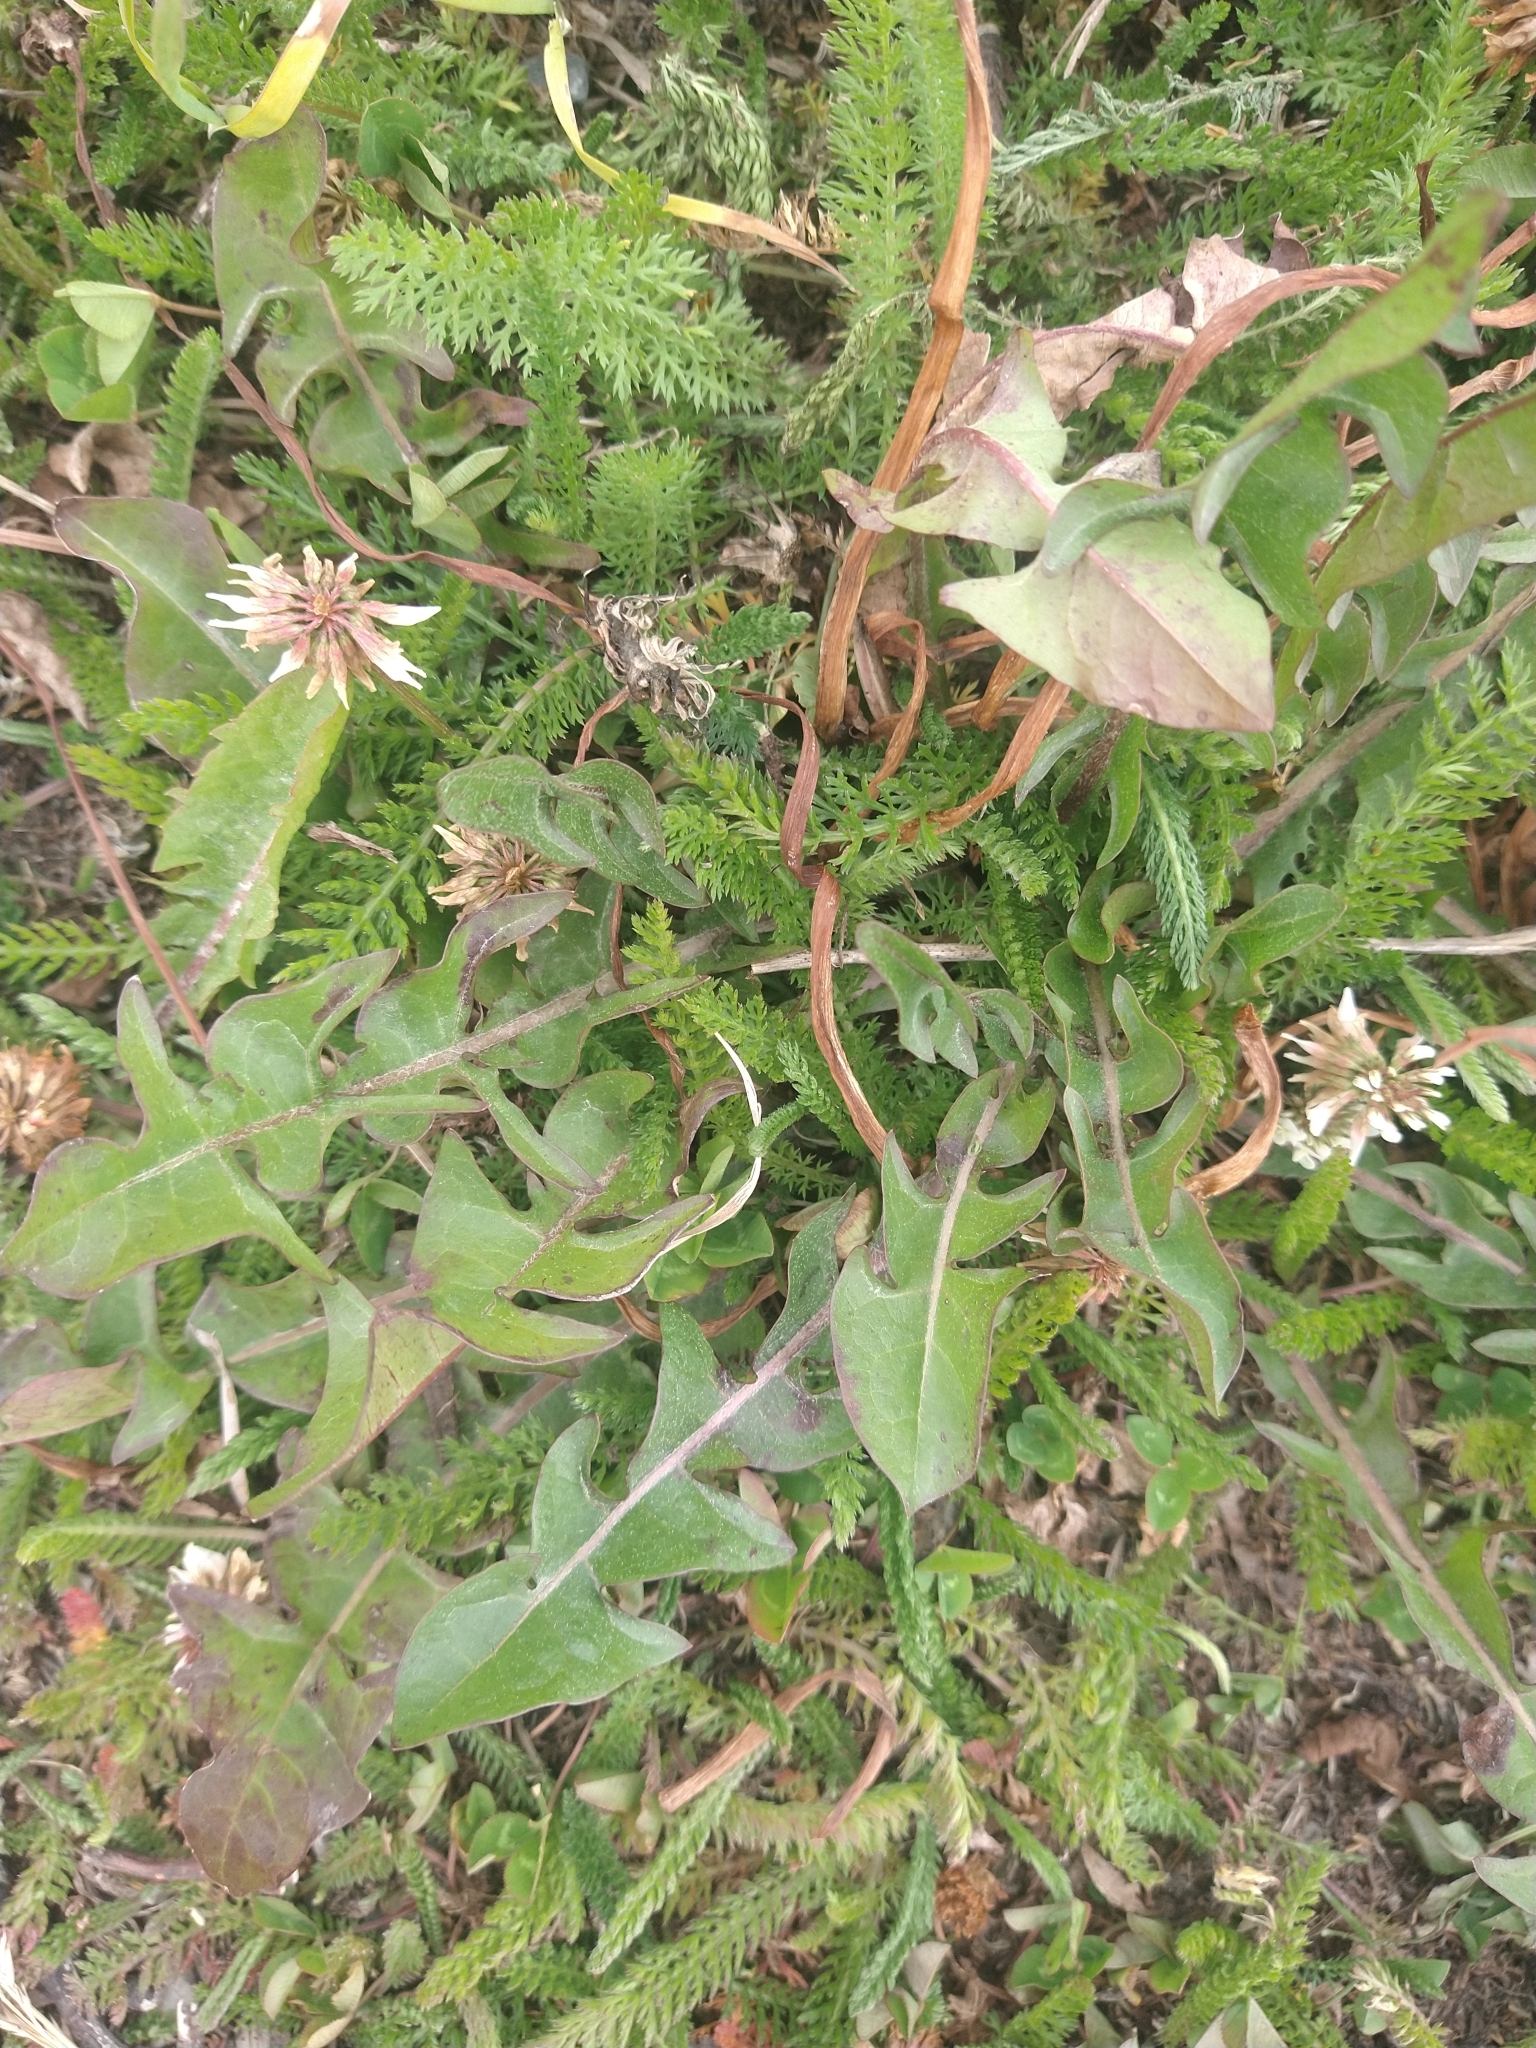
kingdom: Plantae
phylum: Tracheophyta
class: Magnoliopsida
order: Asterales
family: Asteraceae
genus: Taraxacum
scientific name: Taraxacum officinale
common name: Common dandelion
